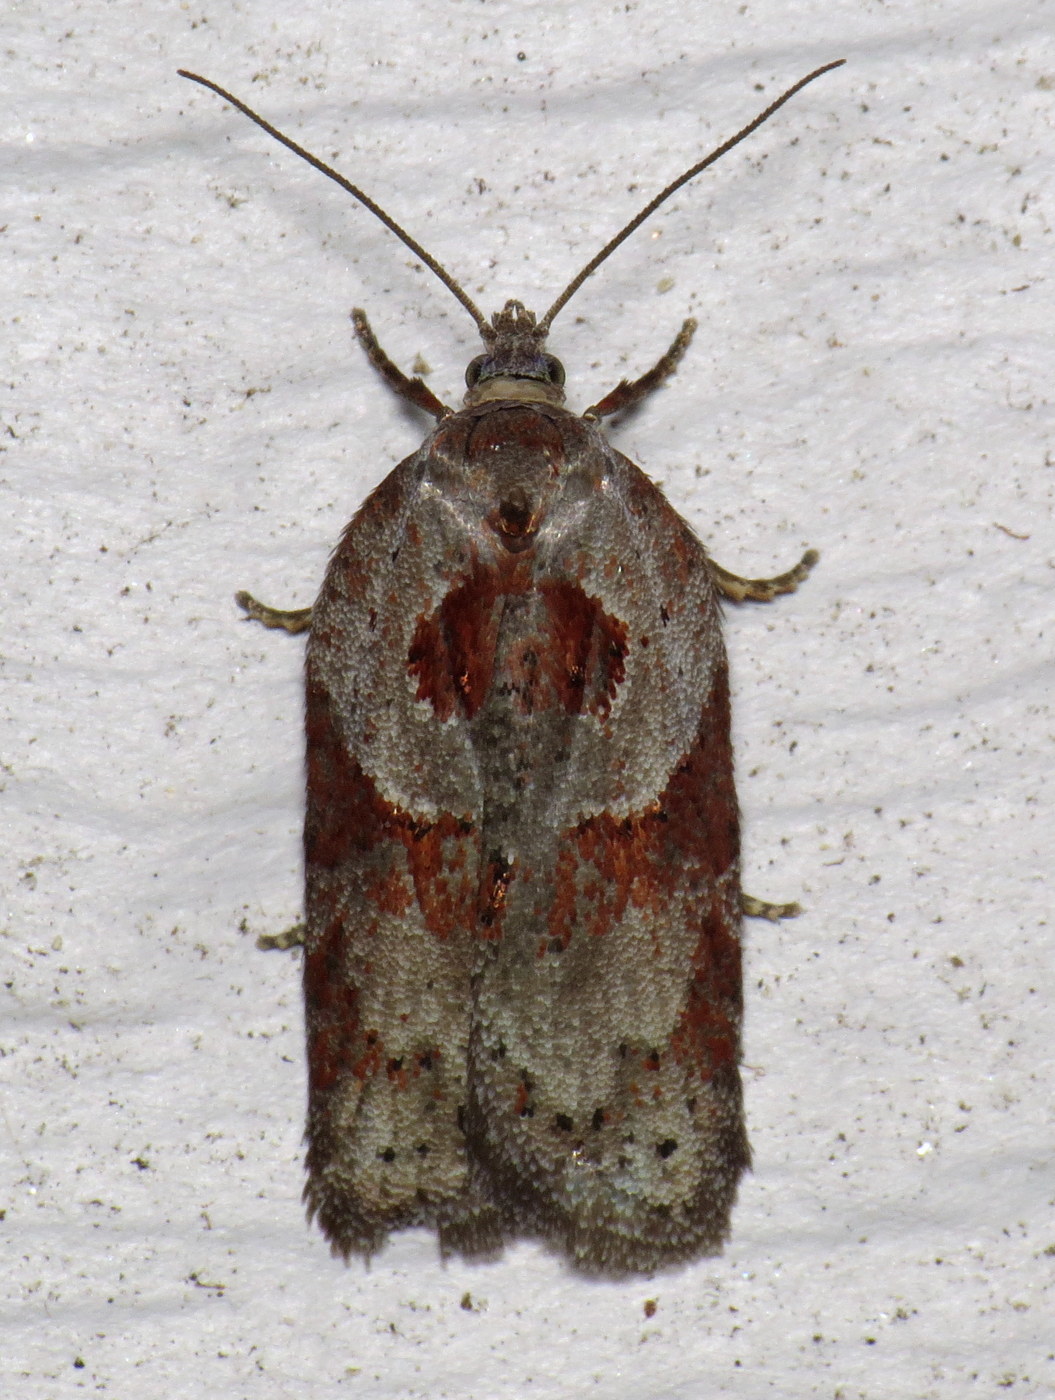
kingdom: Animalia
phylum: Arthropoda
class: Insecta
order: Lepidoptera
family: Tortricidae
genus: Acleris
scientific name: Acleris maculidorsana
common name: Stained-back leafroller moth
